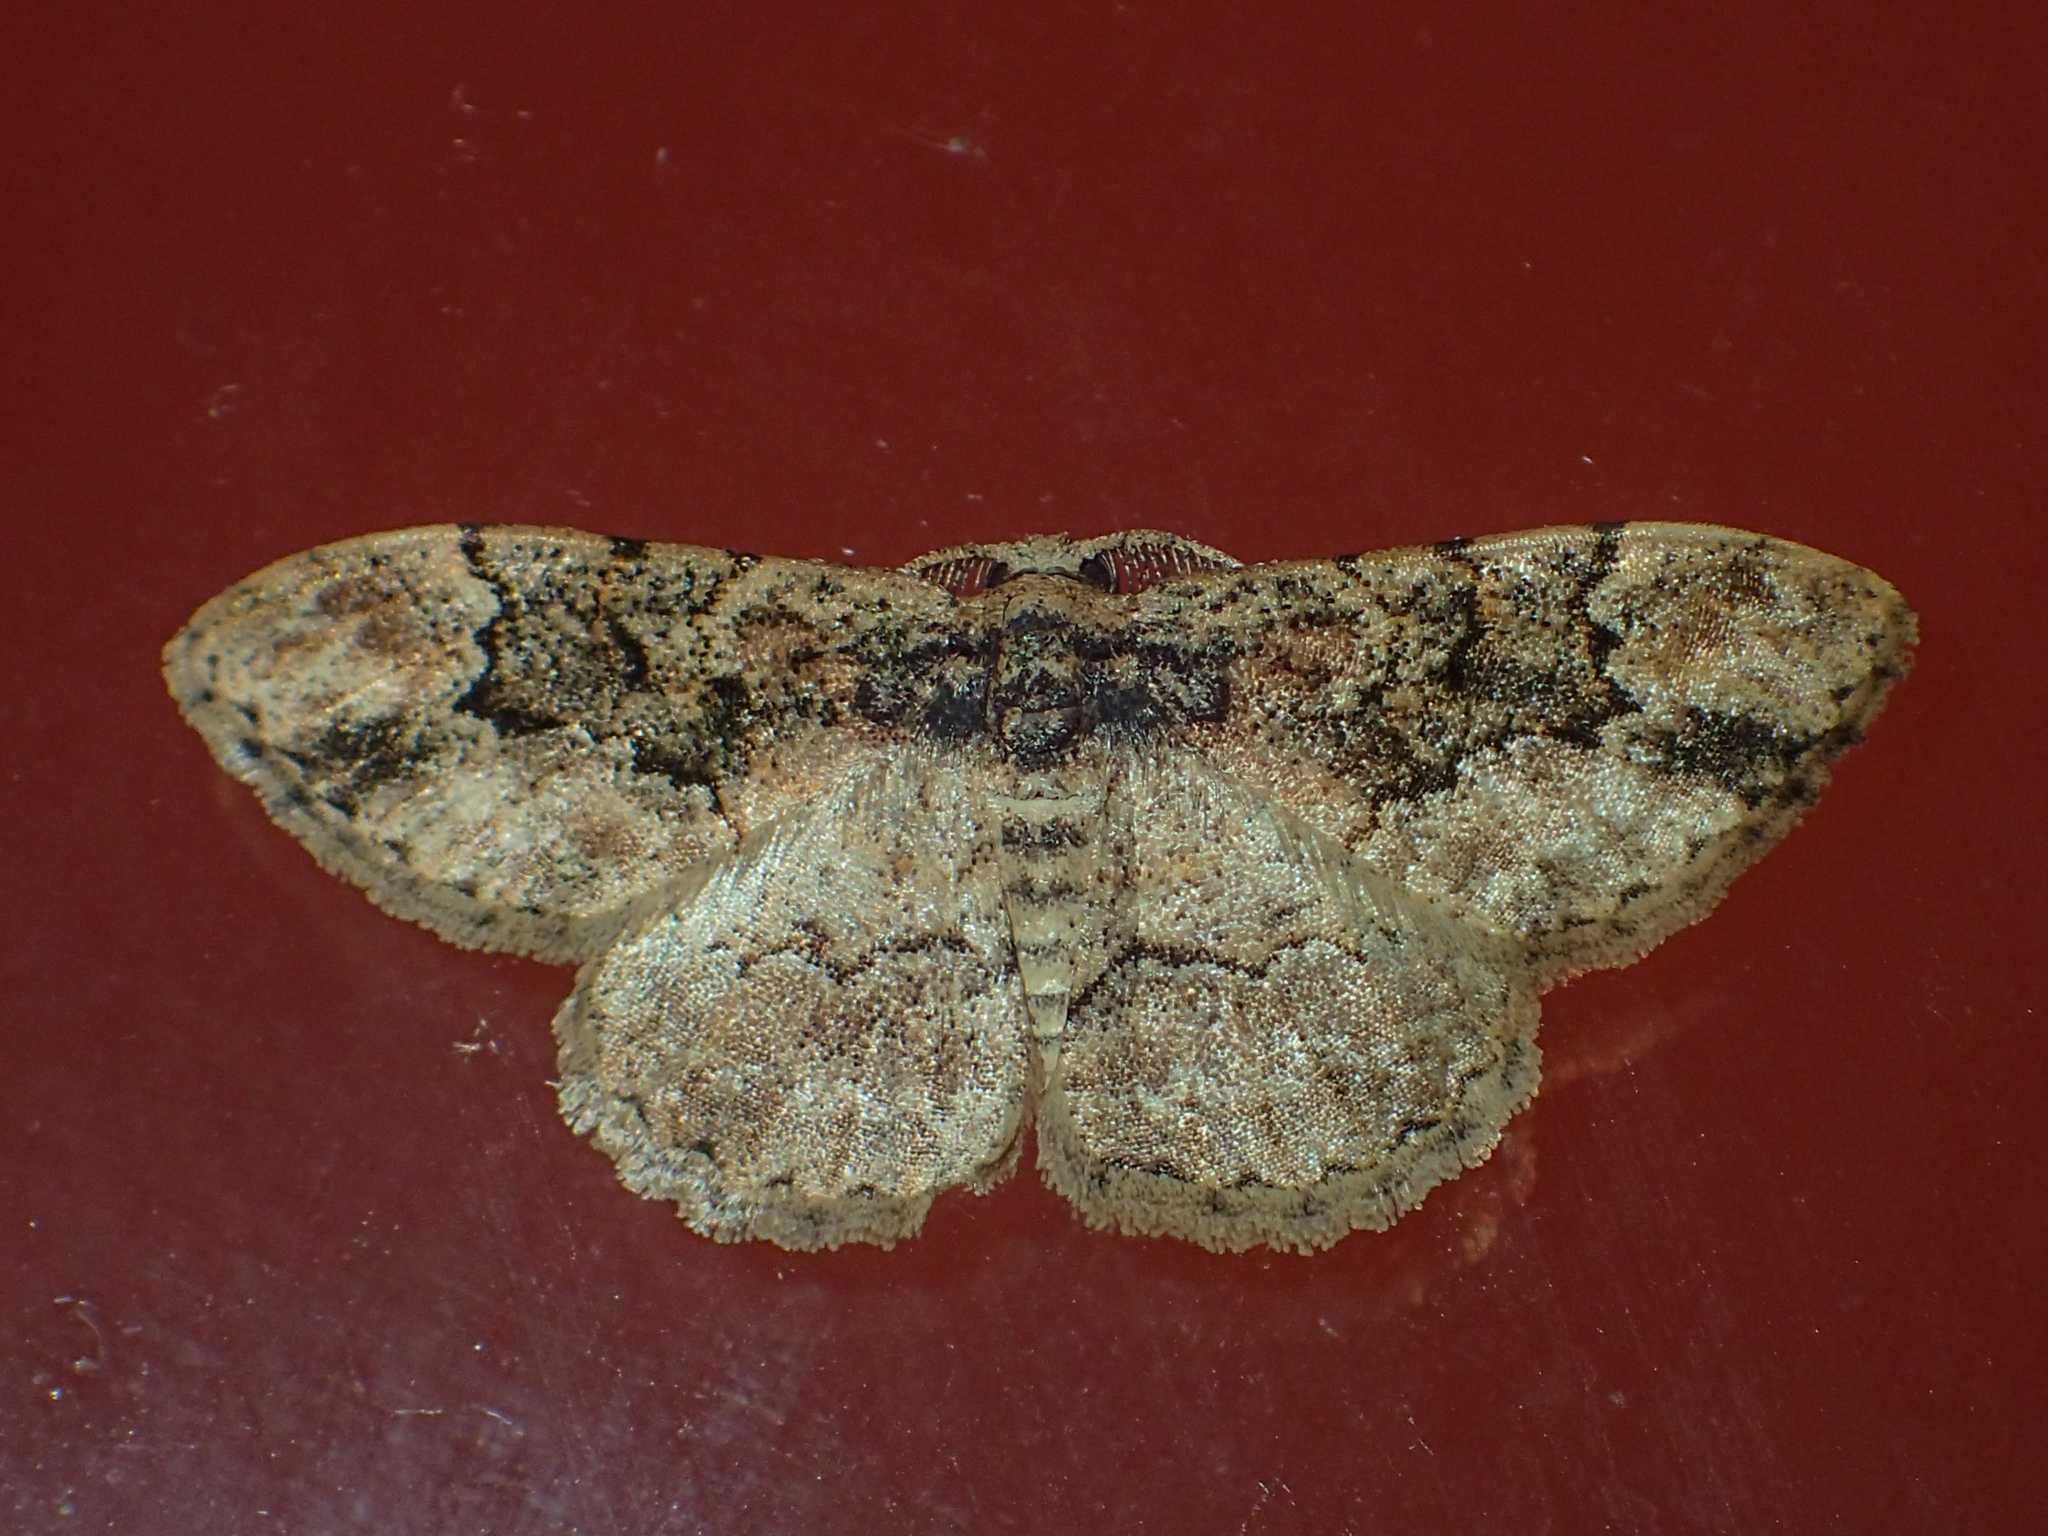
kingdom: Animalia
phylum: Arthropoda
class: Insecta
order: Lepidoptera
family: Geometridae
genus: Parapholodes
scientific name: Parapholodes
